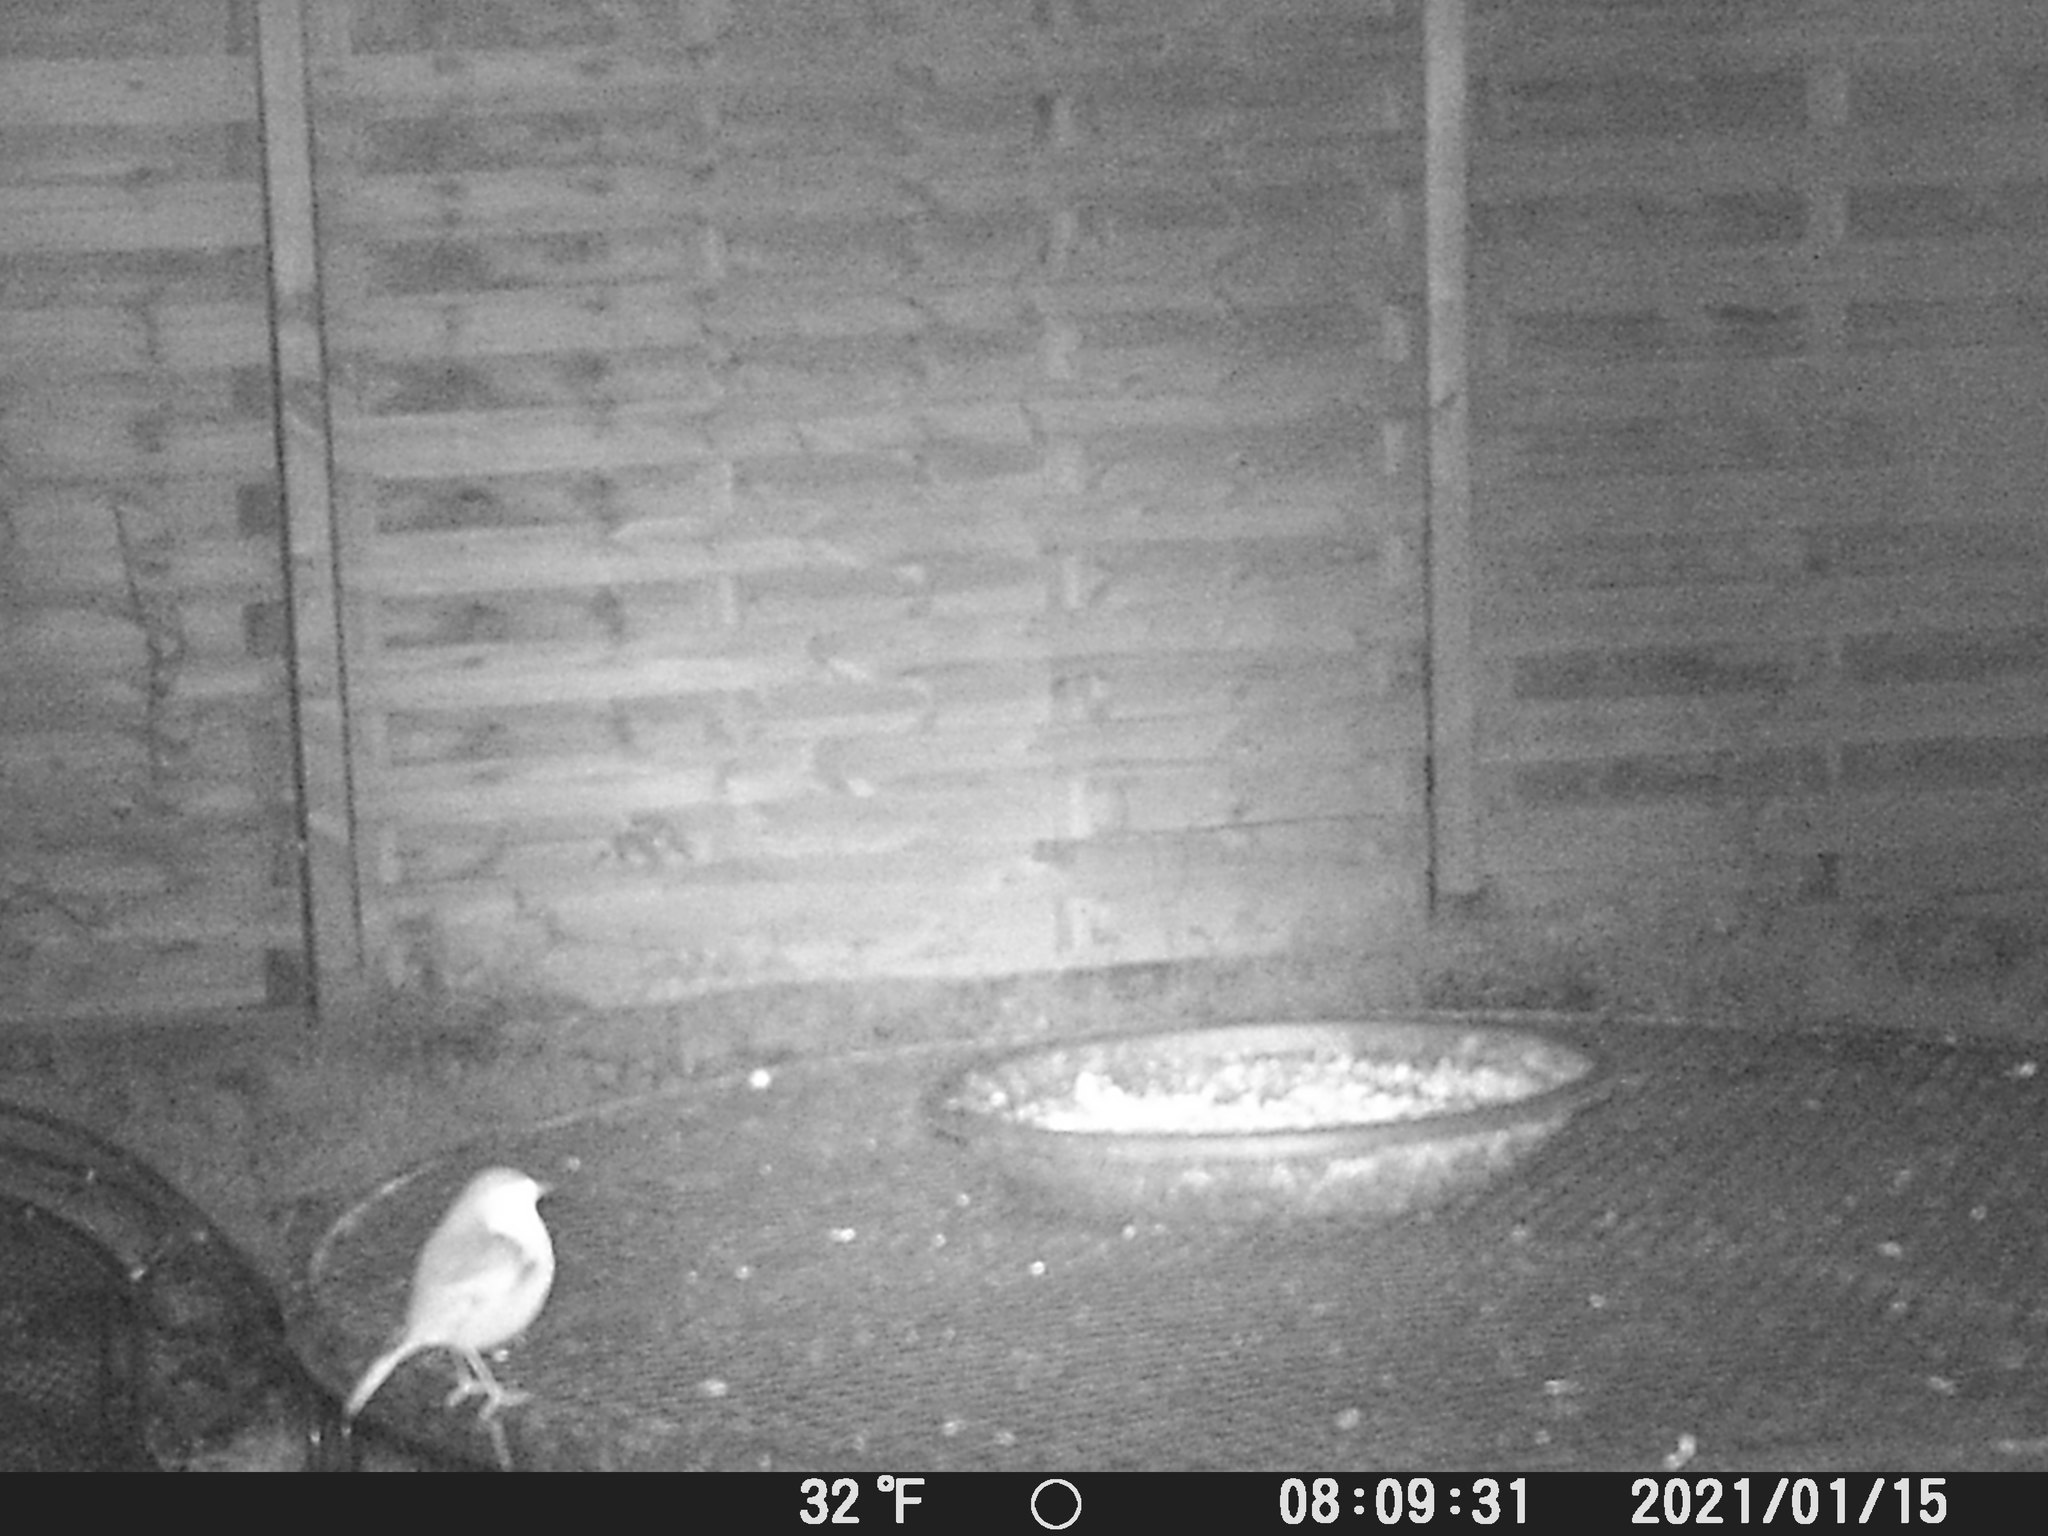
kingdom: Animalia
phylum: Chordata
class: Aves
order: Passeriformes
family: Muscicapidae
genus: Erithacus
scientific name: Erithacus rubecula
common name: European robin
